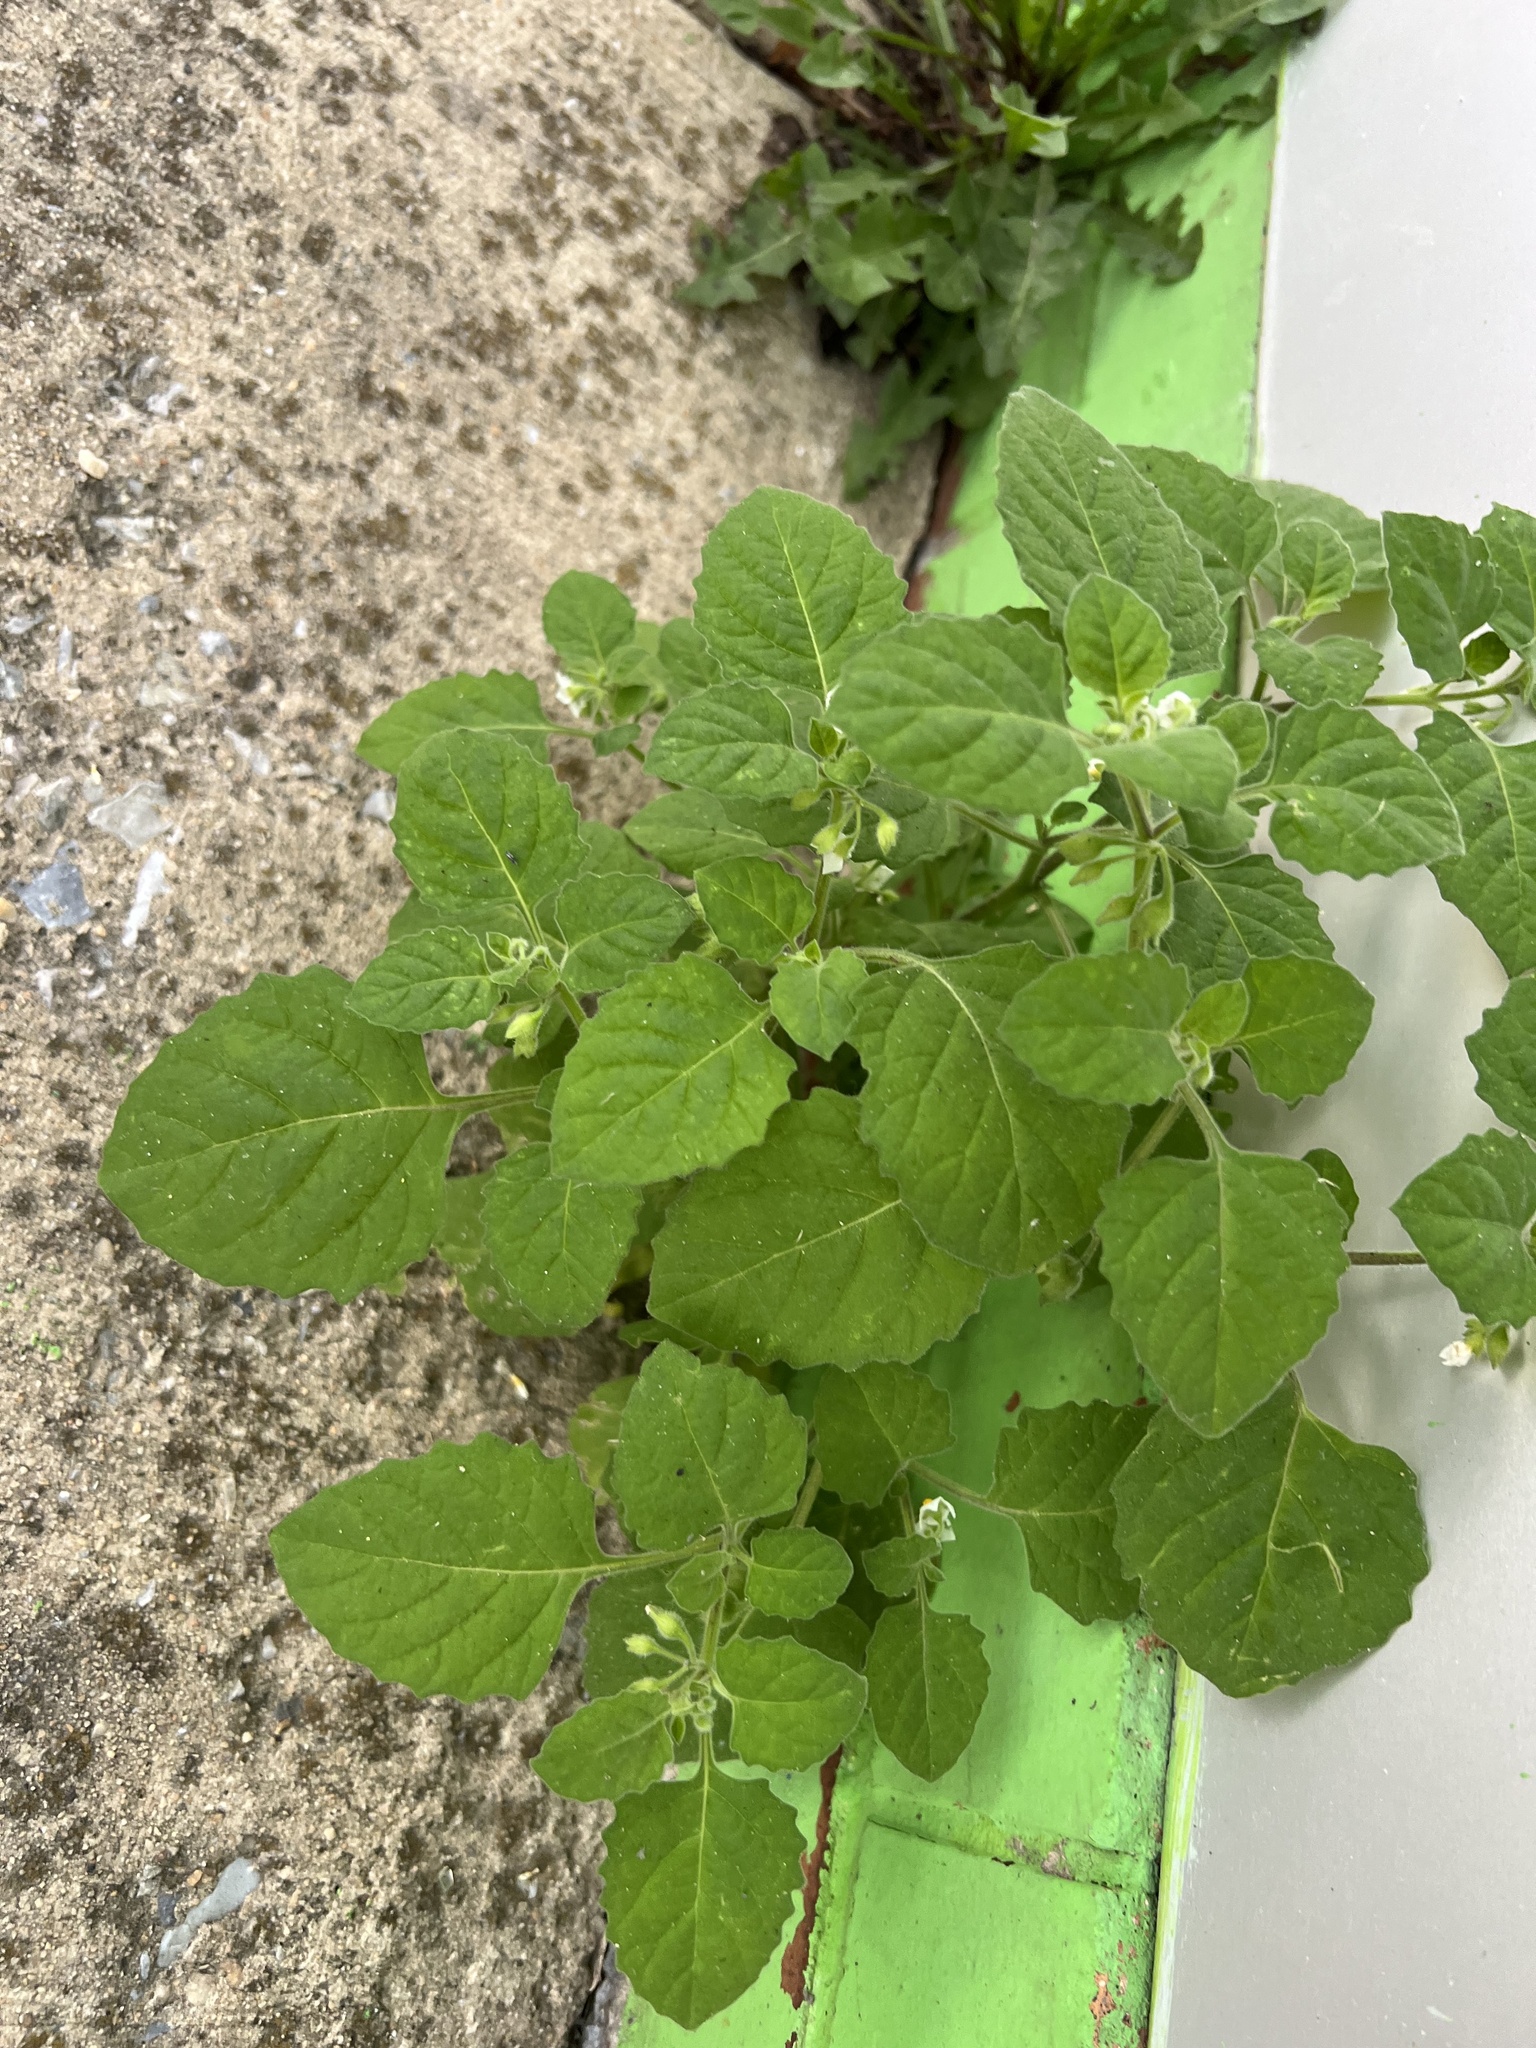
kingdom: Plantae
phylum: Tracheophyta
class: Magnoliopsida
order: Solanales
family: Solanaceae
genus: Solanum
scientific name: Solanum sarrachoides
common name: Leafy-fruited nightshade
